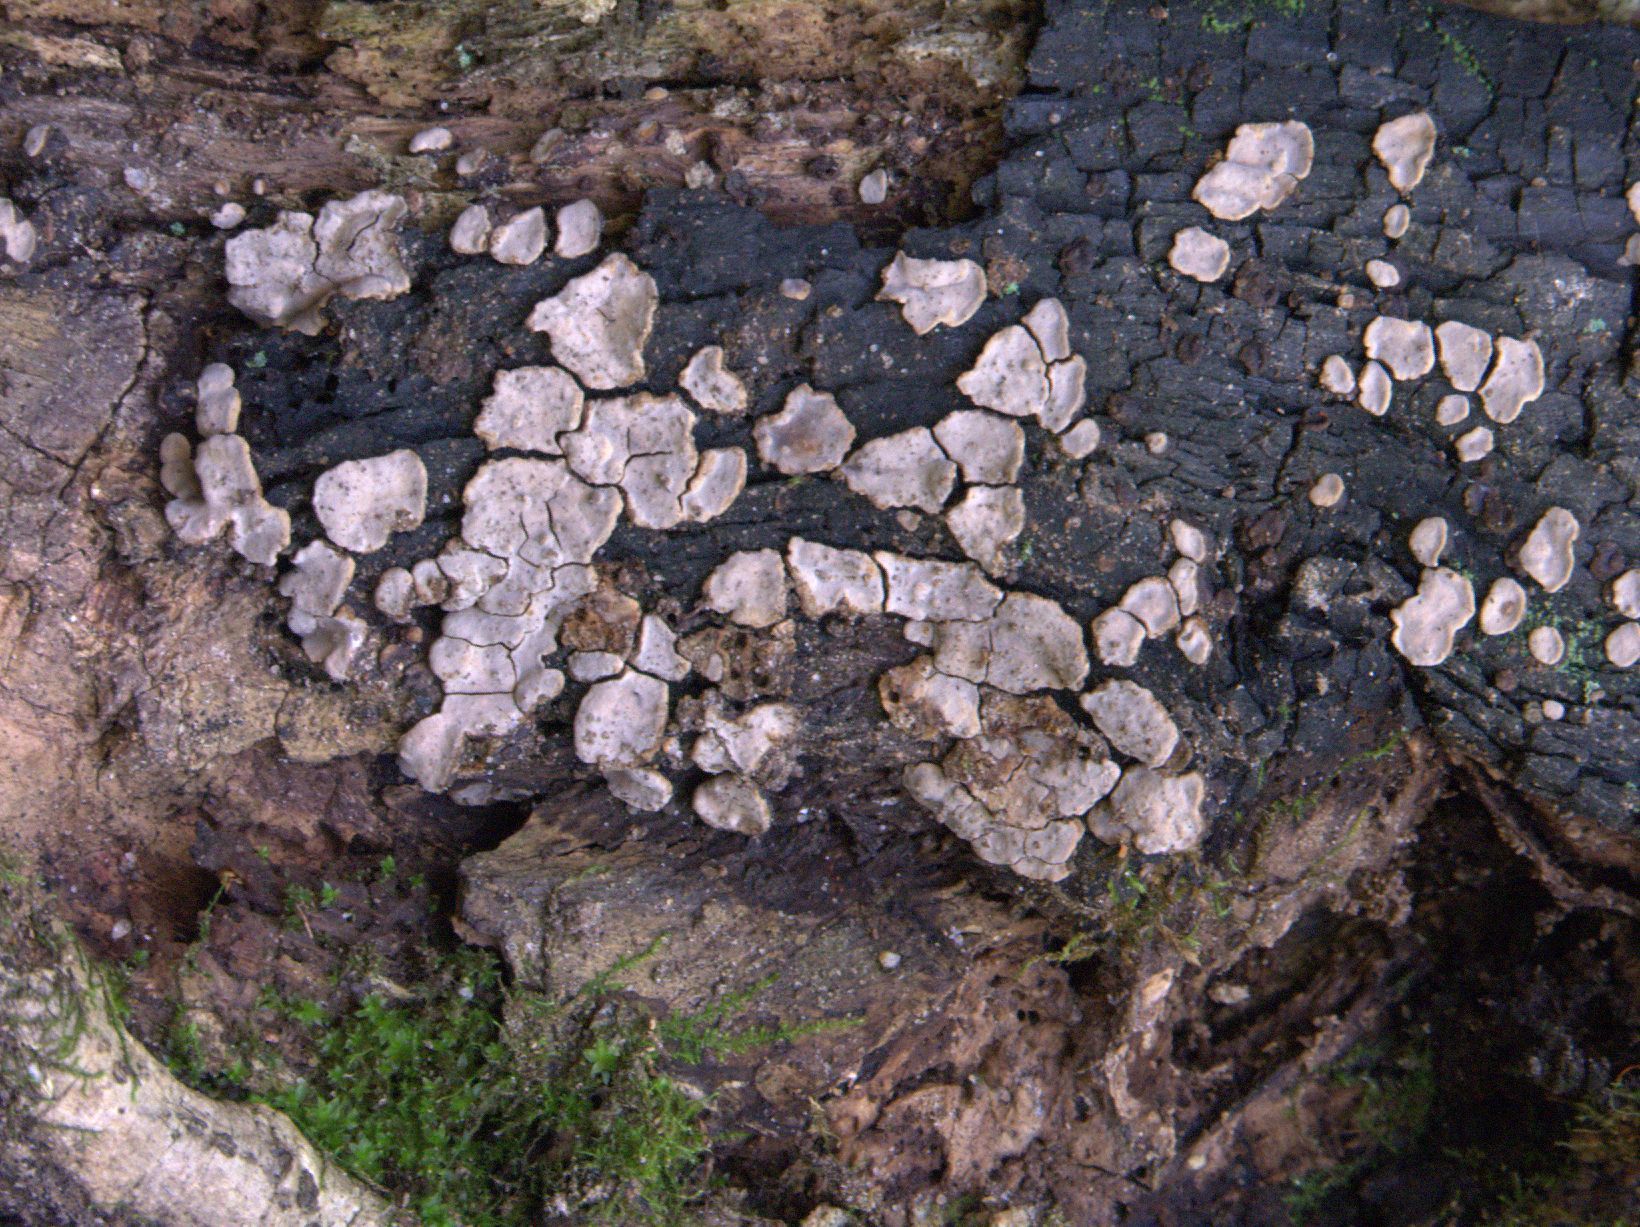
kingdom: Fungi
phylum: Basidiomycota
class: Agaricomycetes
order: Russulales
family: Stereaceae
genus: Xylobolus
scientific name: Xylobolus frustulatus
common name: Ceramic parchment
